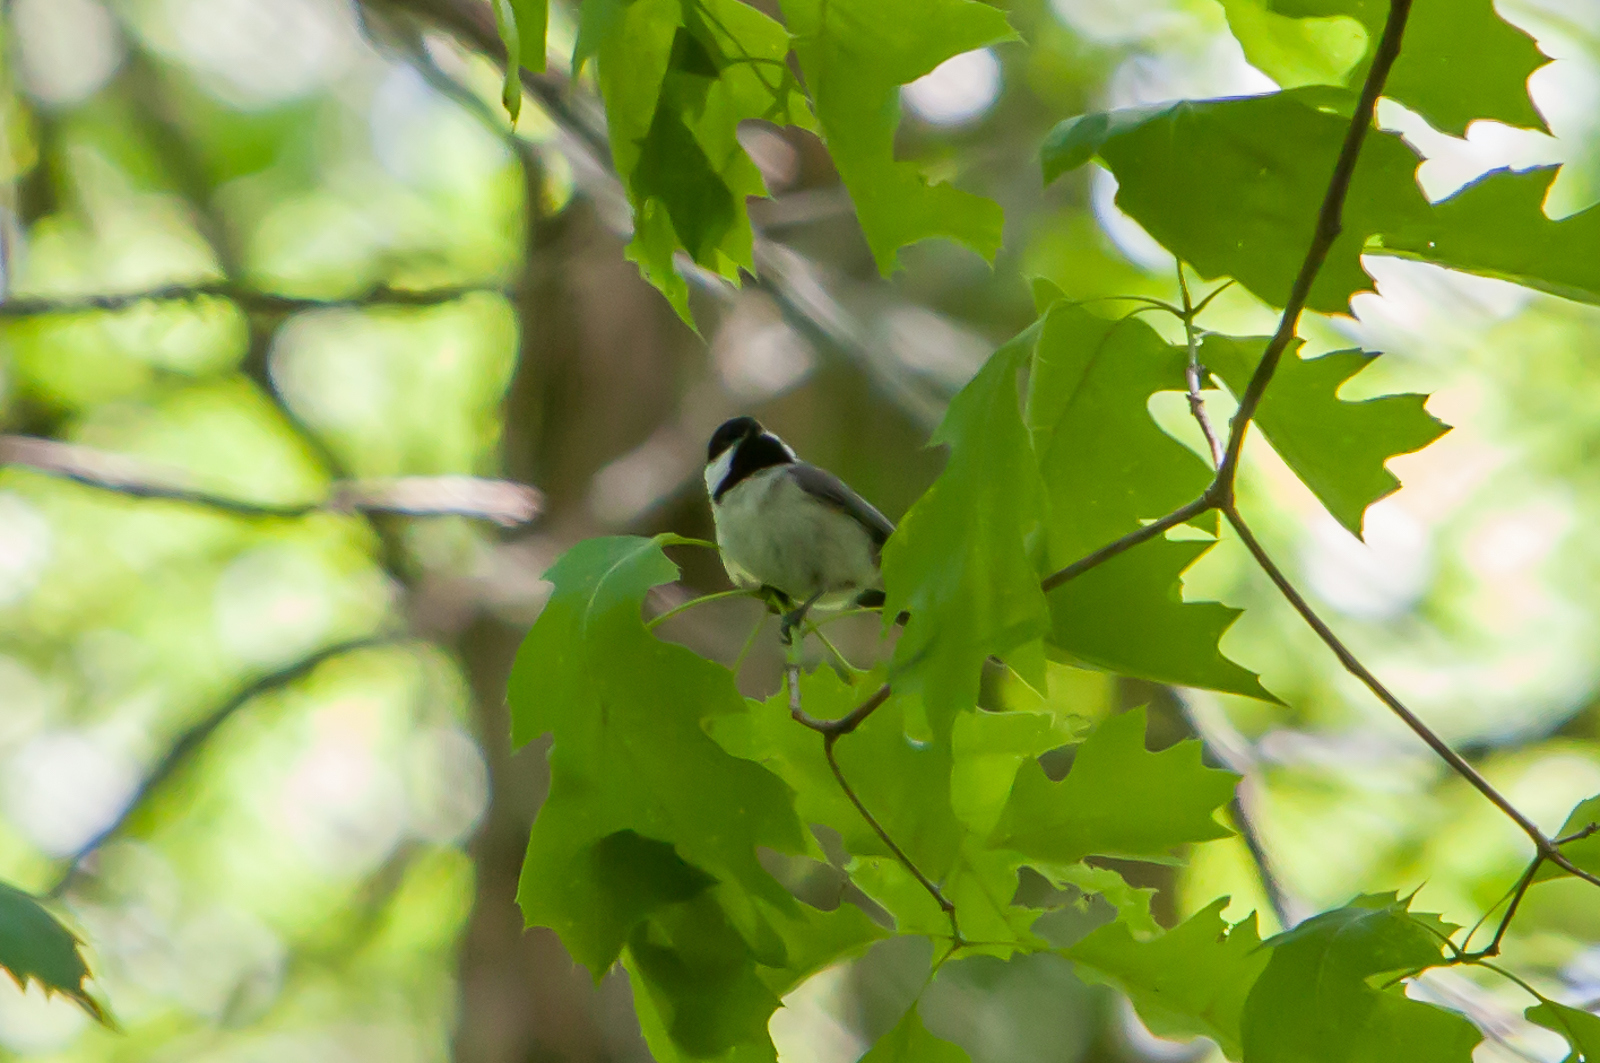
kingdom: Animalia
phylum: Chordata
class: Aves
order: Passeriformes
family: Paridae
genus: Poecile
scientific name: Poecile carolinensis
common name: Carolina chickadee
